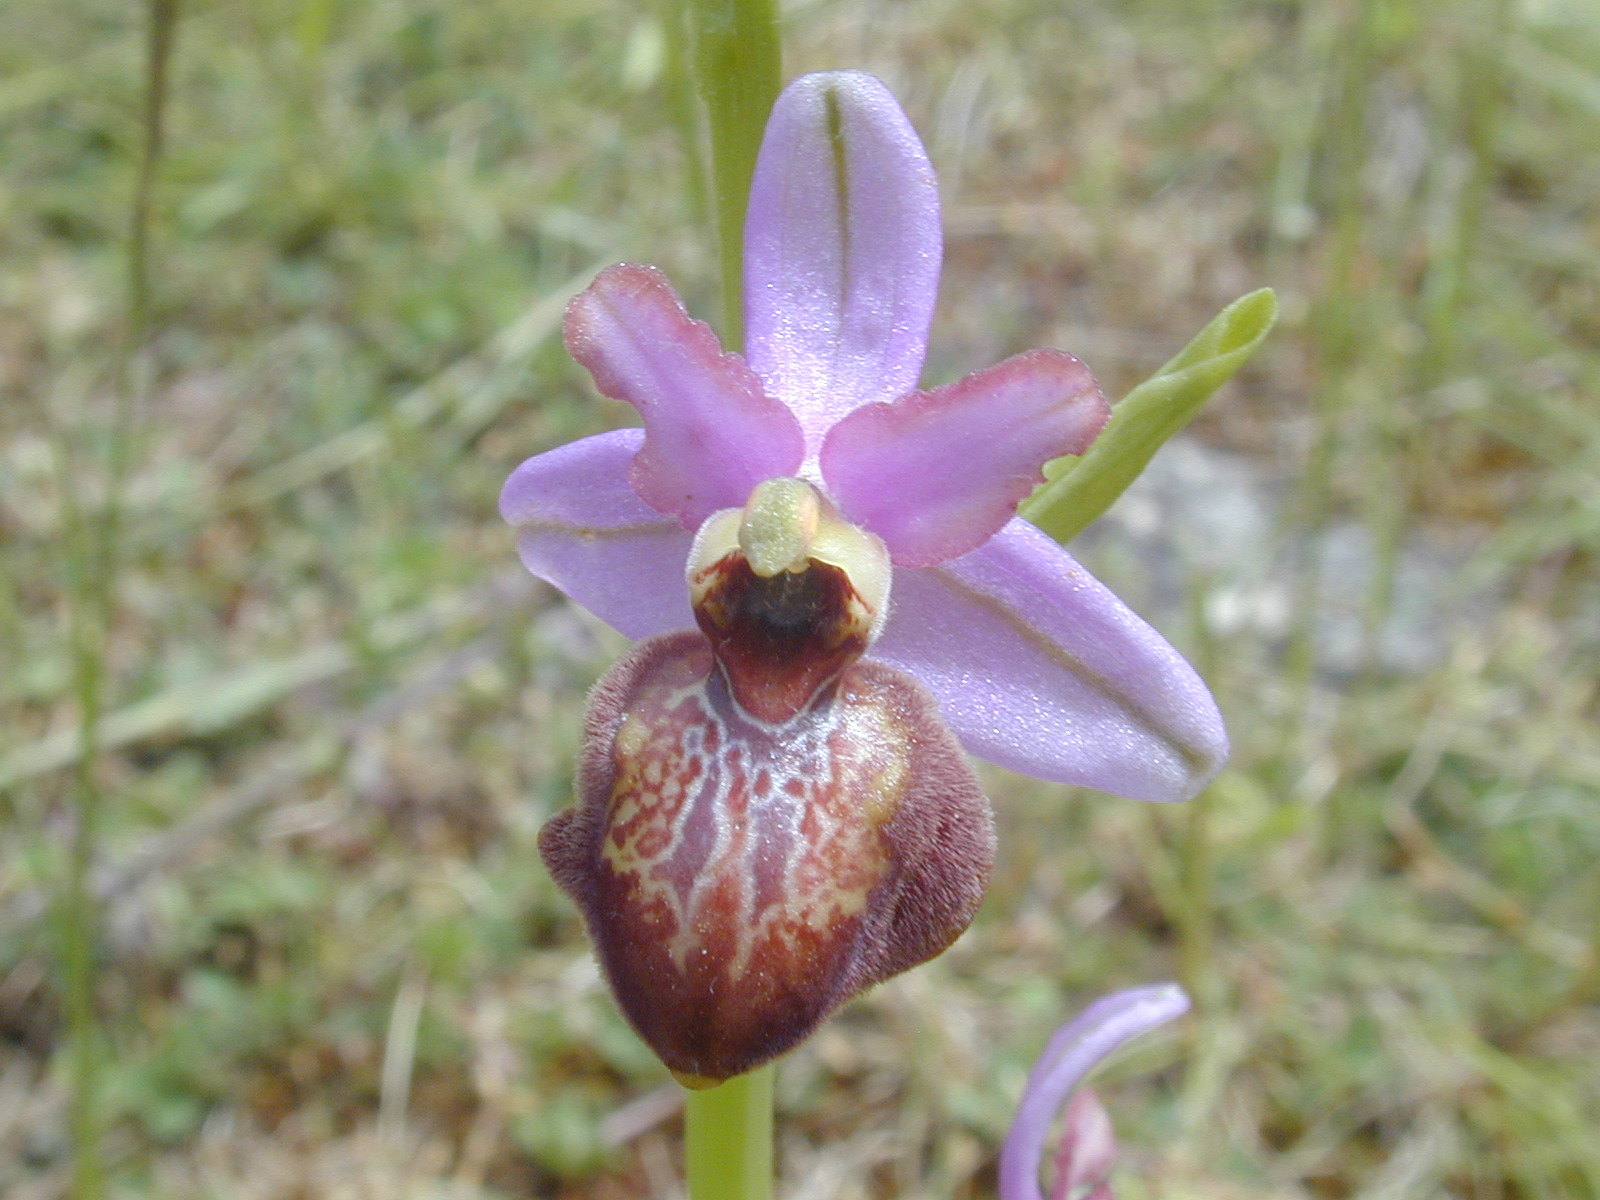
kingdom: Plantae
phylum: Tracheophyta
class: Liliopsida
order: Asparagales
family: Orchidaceae
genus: Ophrys
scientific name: Ophrys sphegodes
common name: Early spider-orchid
